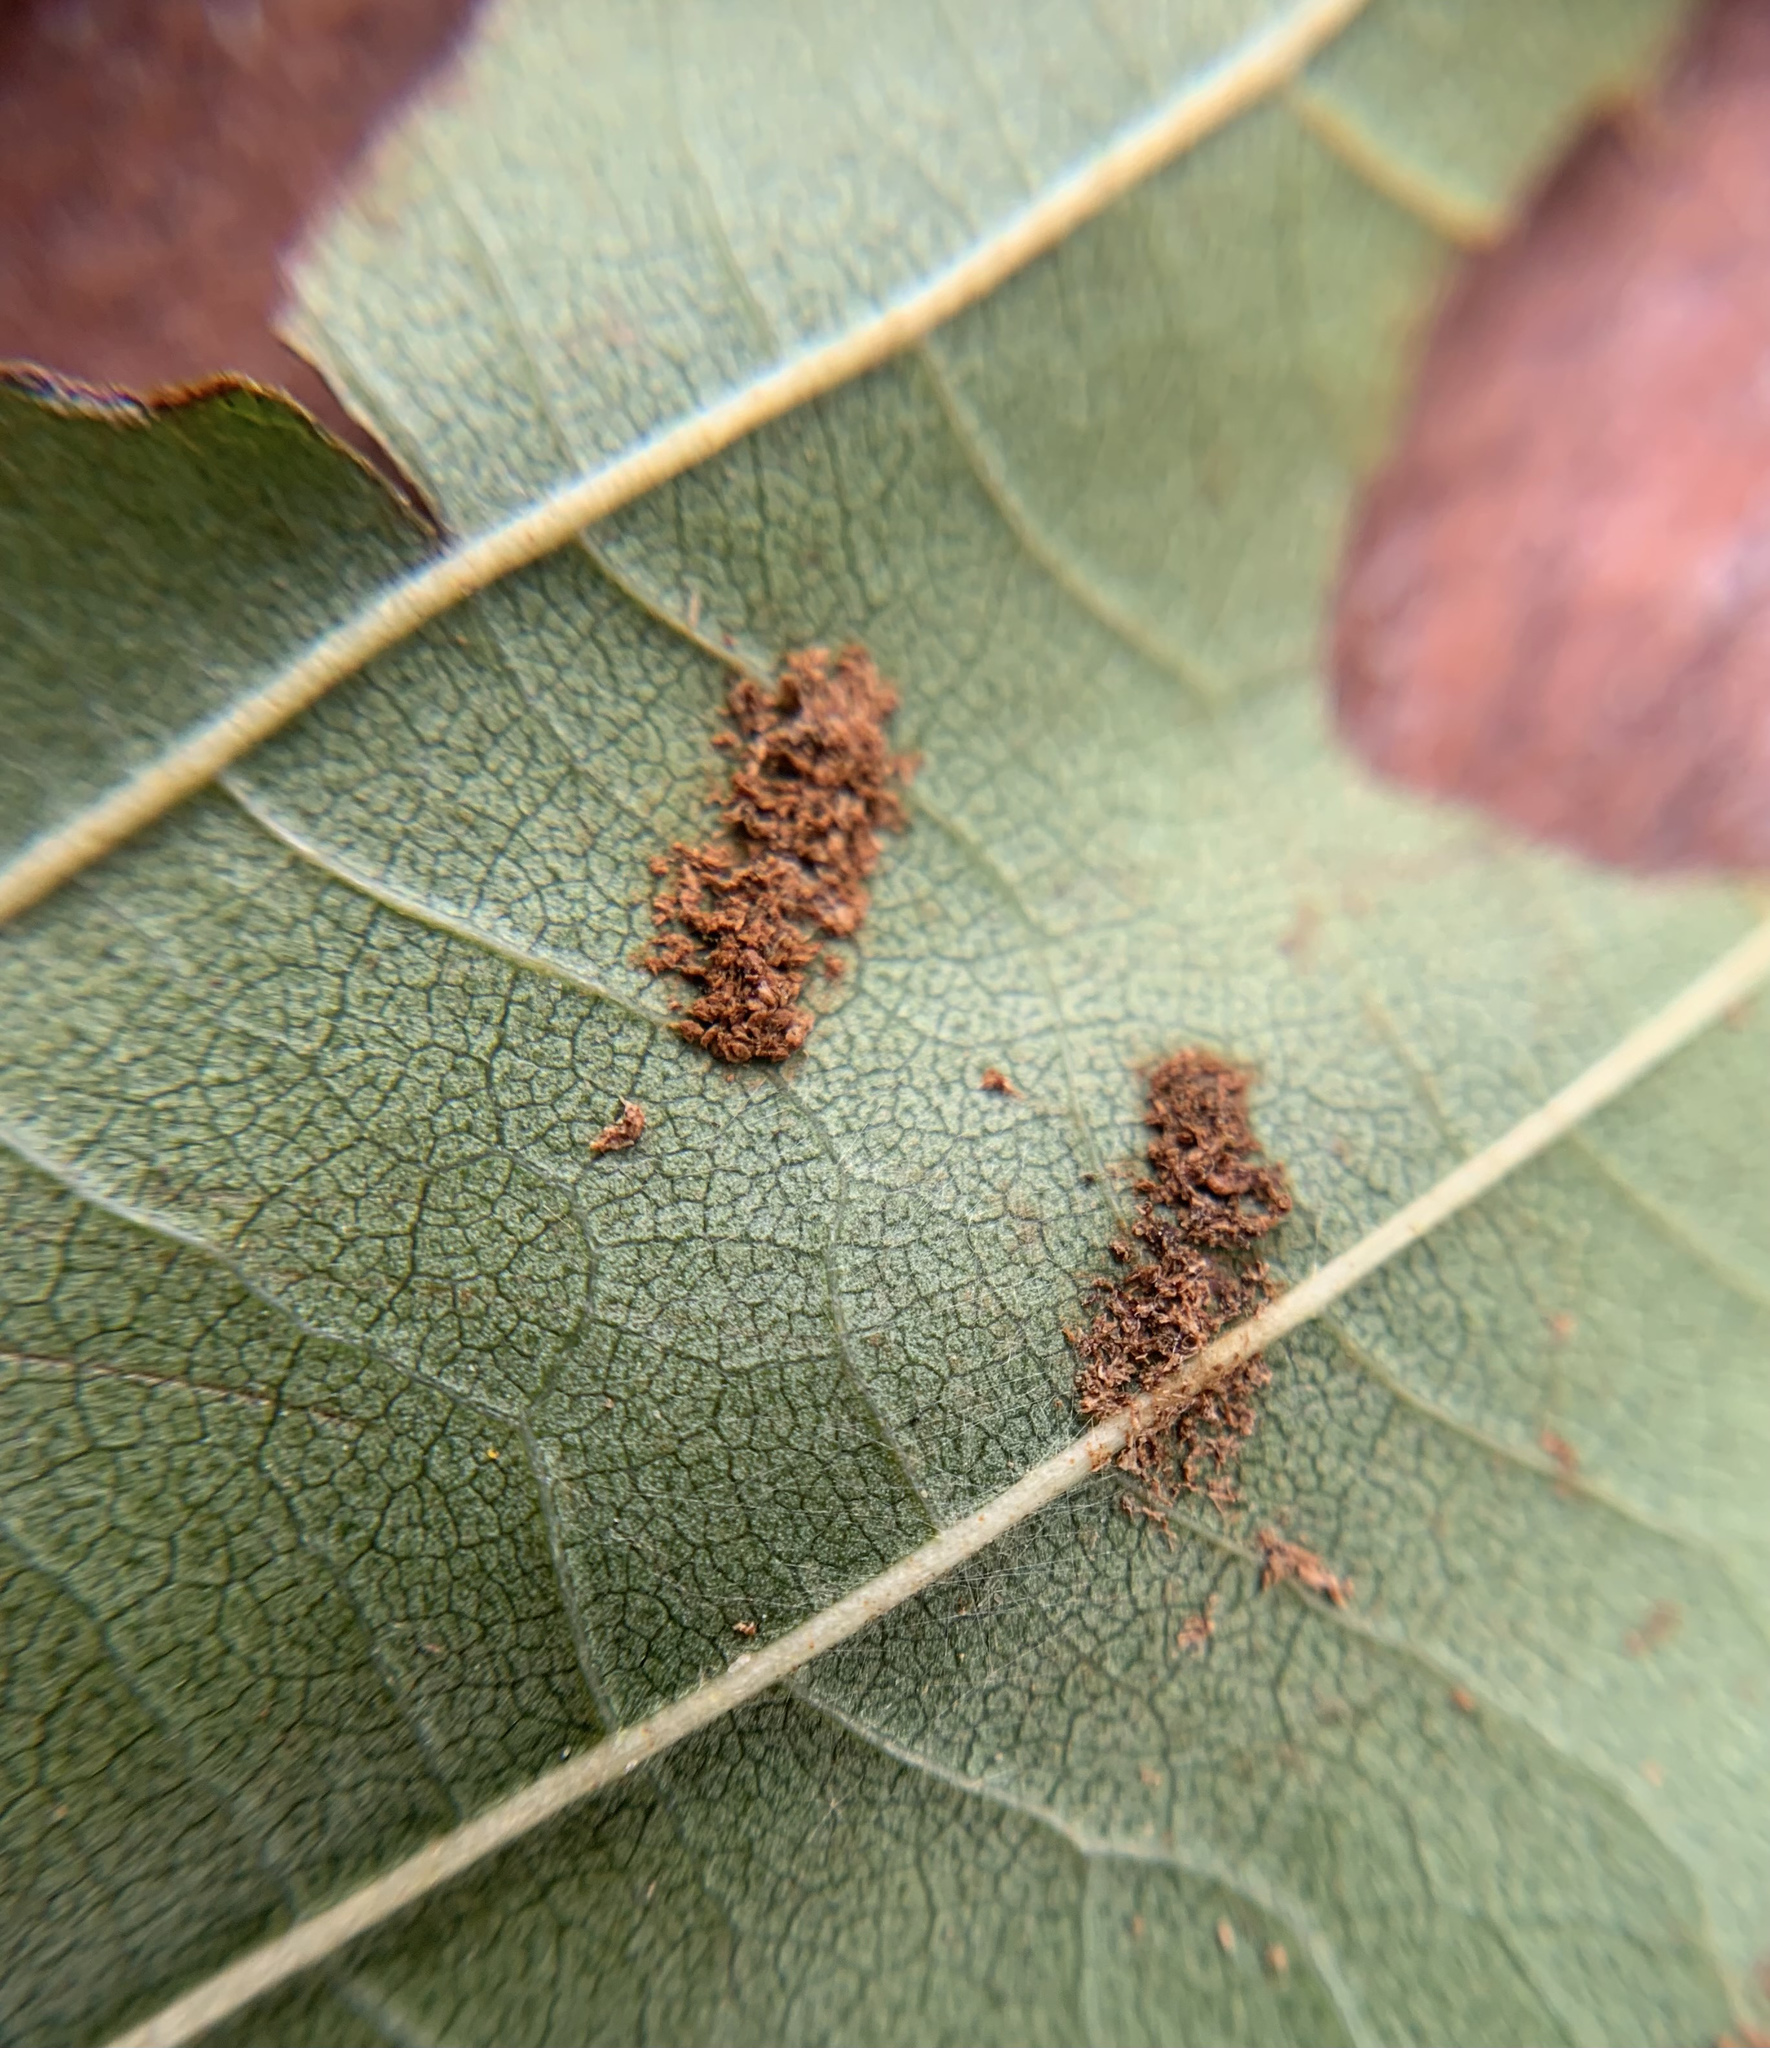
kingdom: Animalia
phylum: Arthropoda
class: Arachnida
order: Trombidiformes
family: Eriophyidae
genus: Acalitus
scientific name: Acalitus brevitarsus
